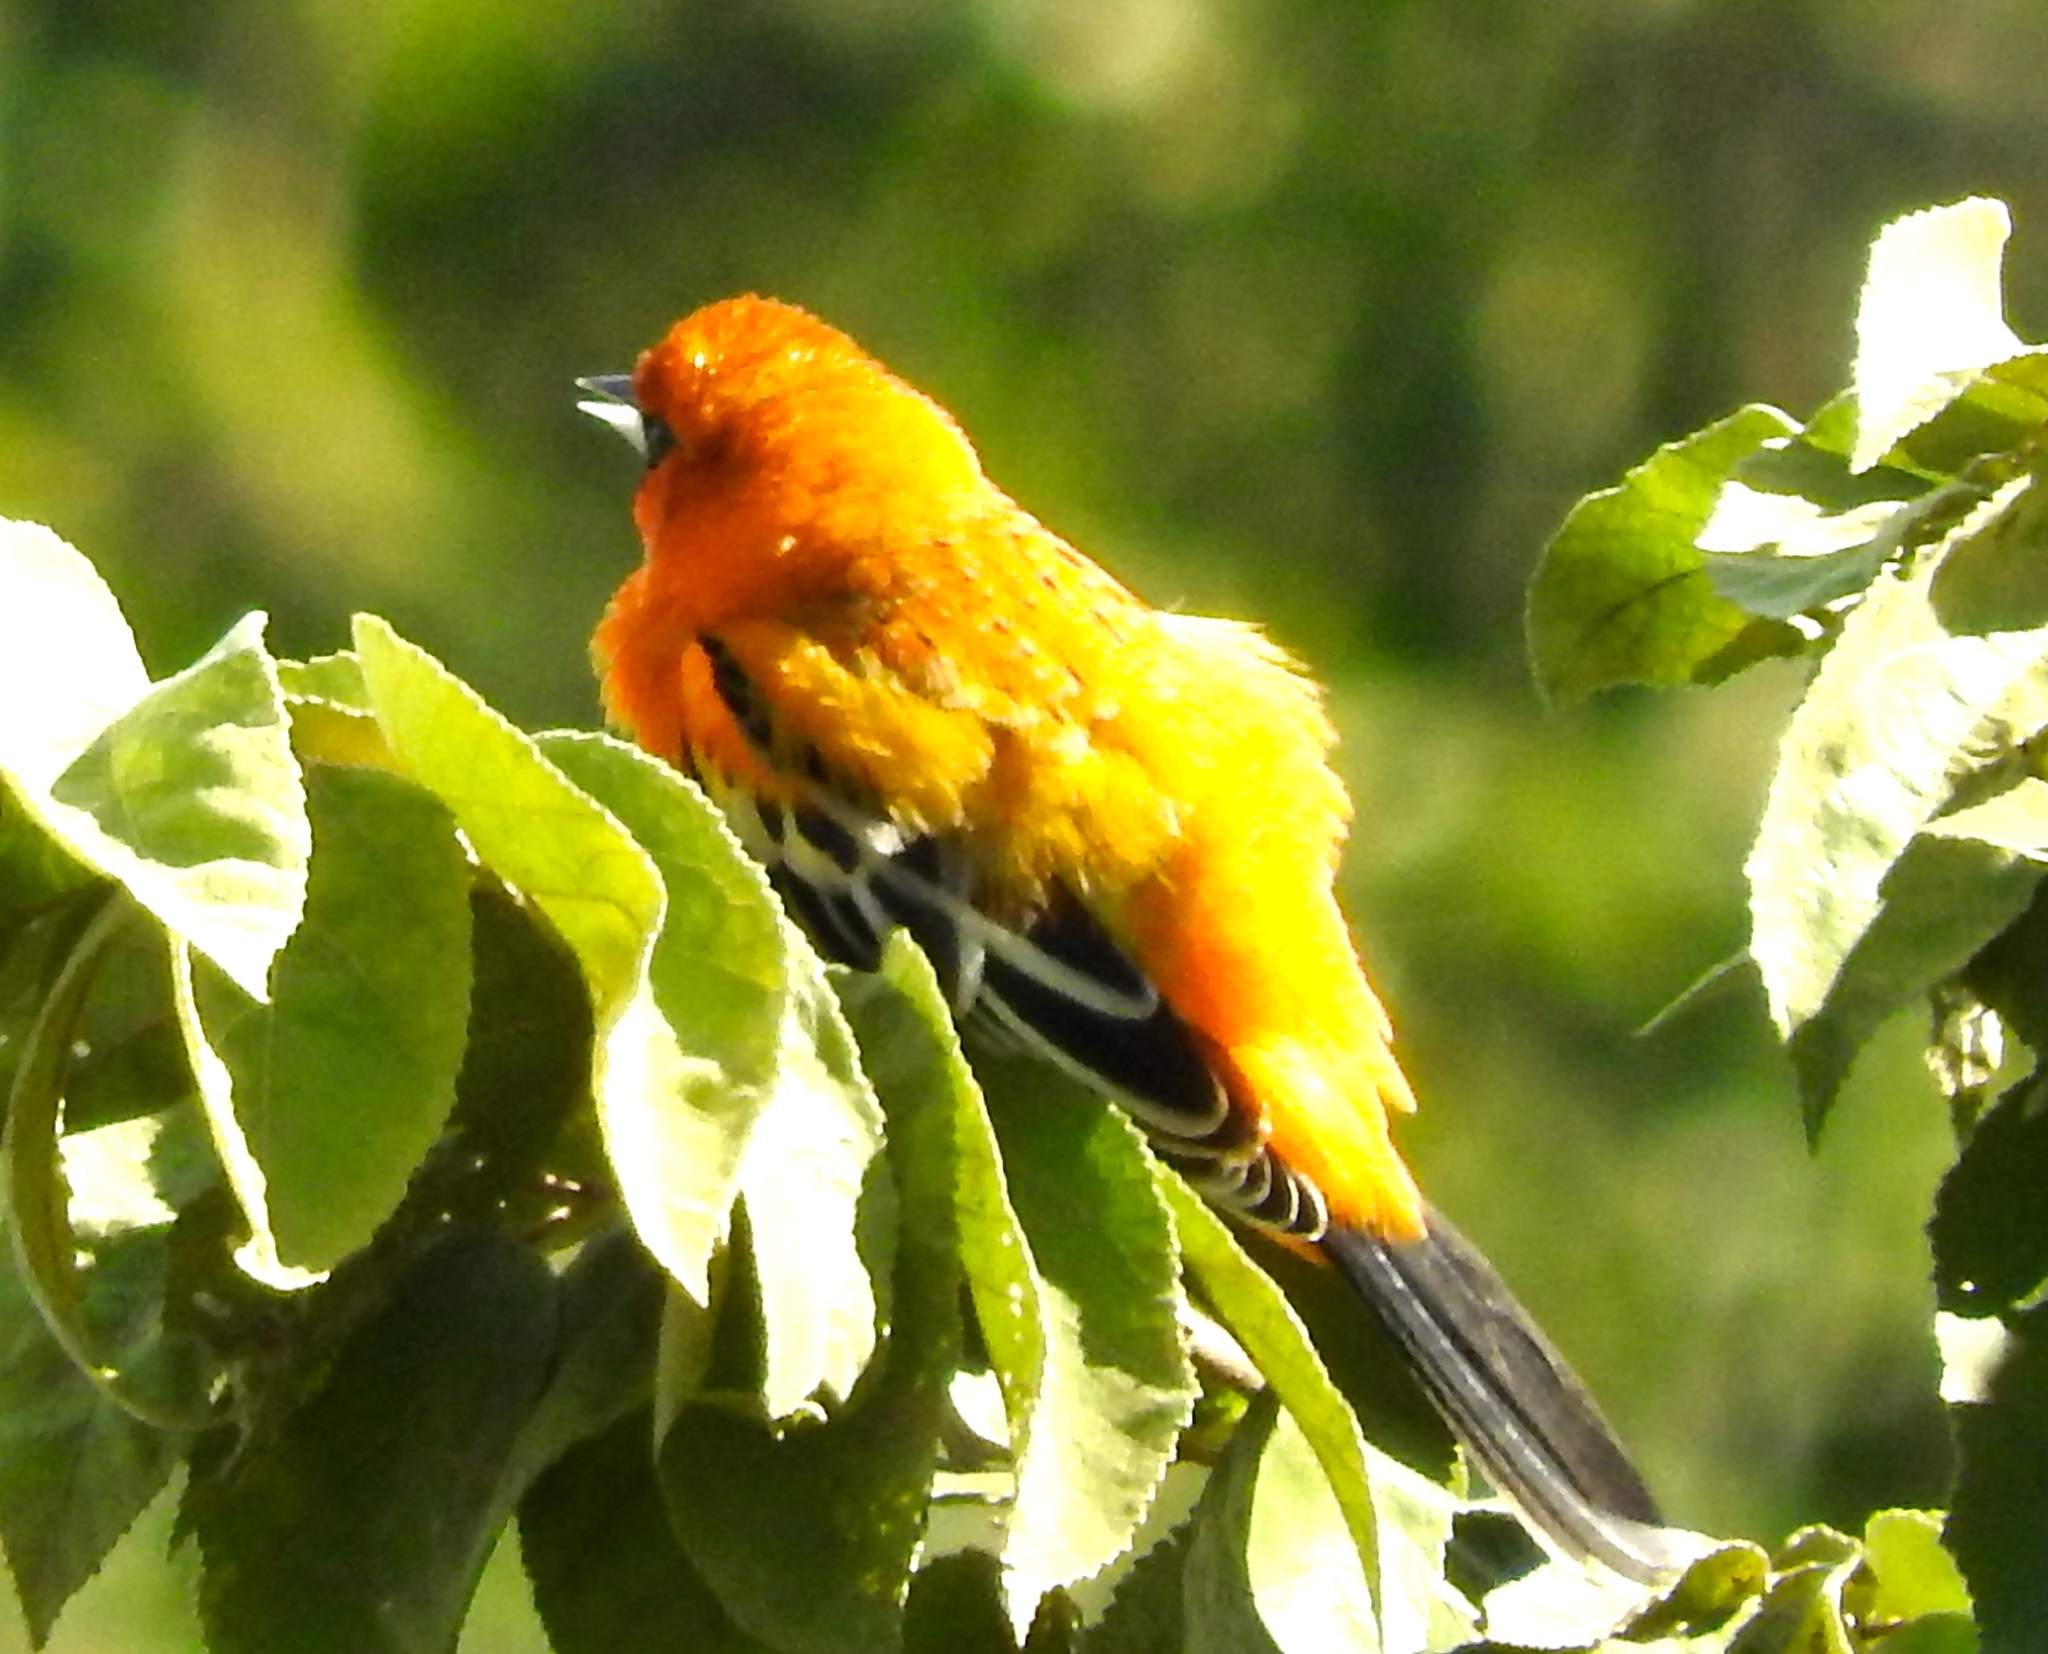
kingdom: Animalia
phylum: Chordata
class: Aves
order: Passeriformes
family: Icteridae
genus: Icterus
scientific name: Icterus pustulatus
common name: Streak-backed oriole
